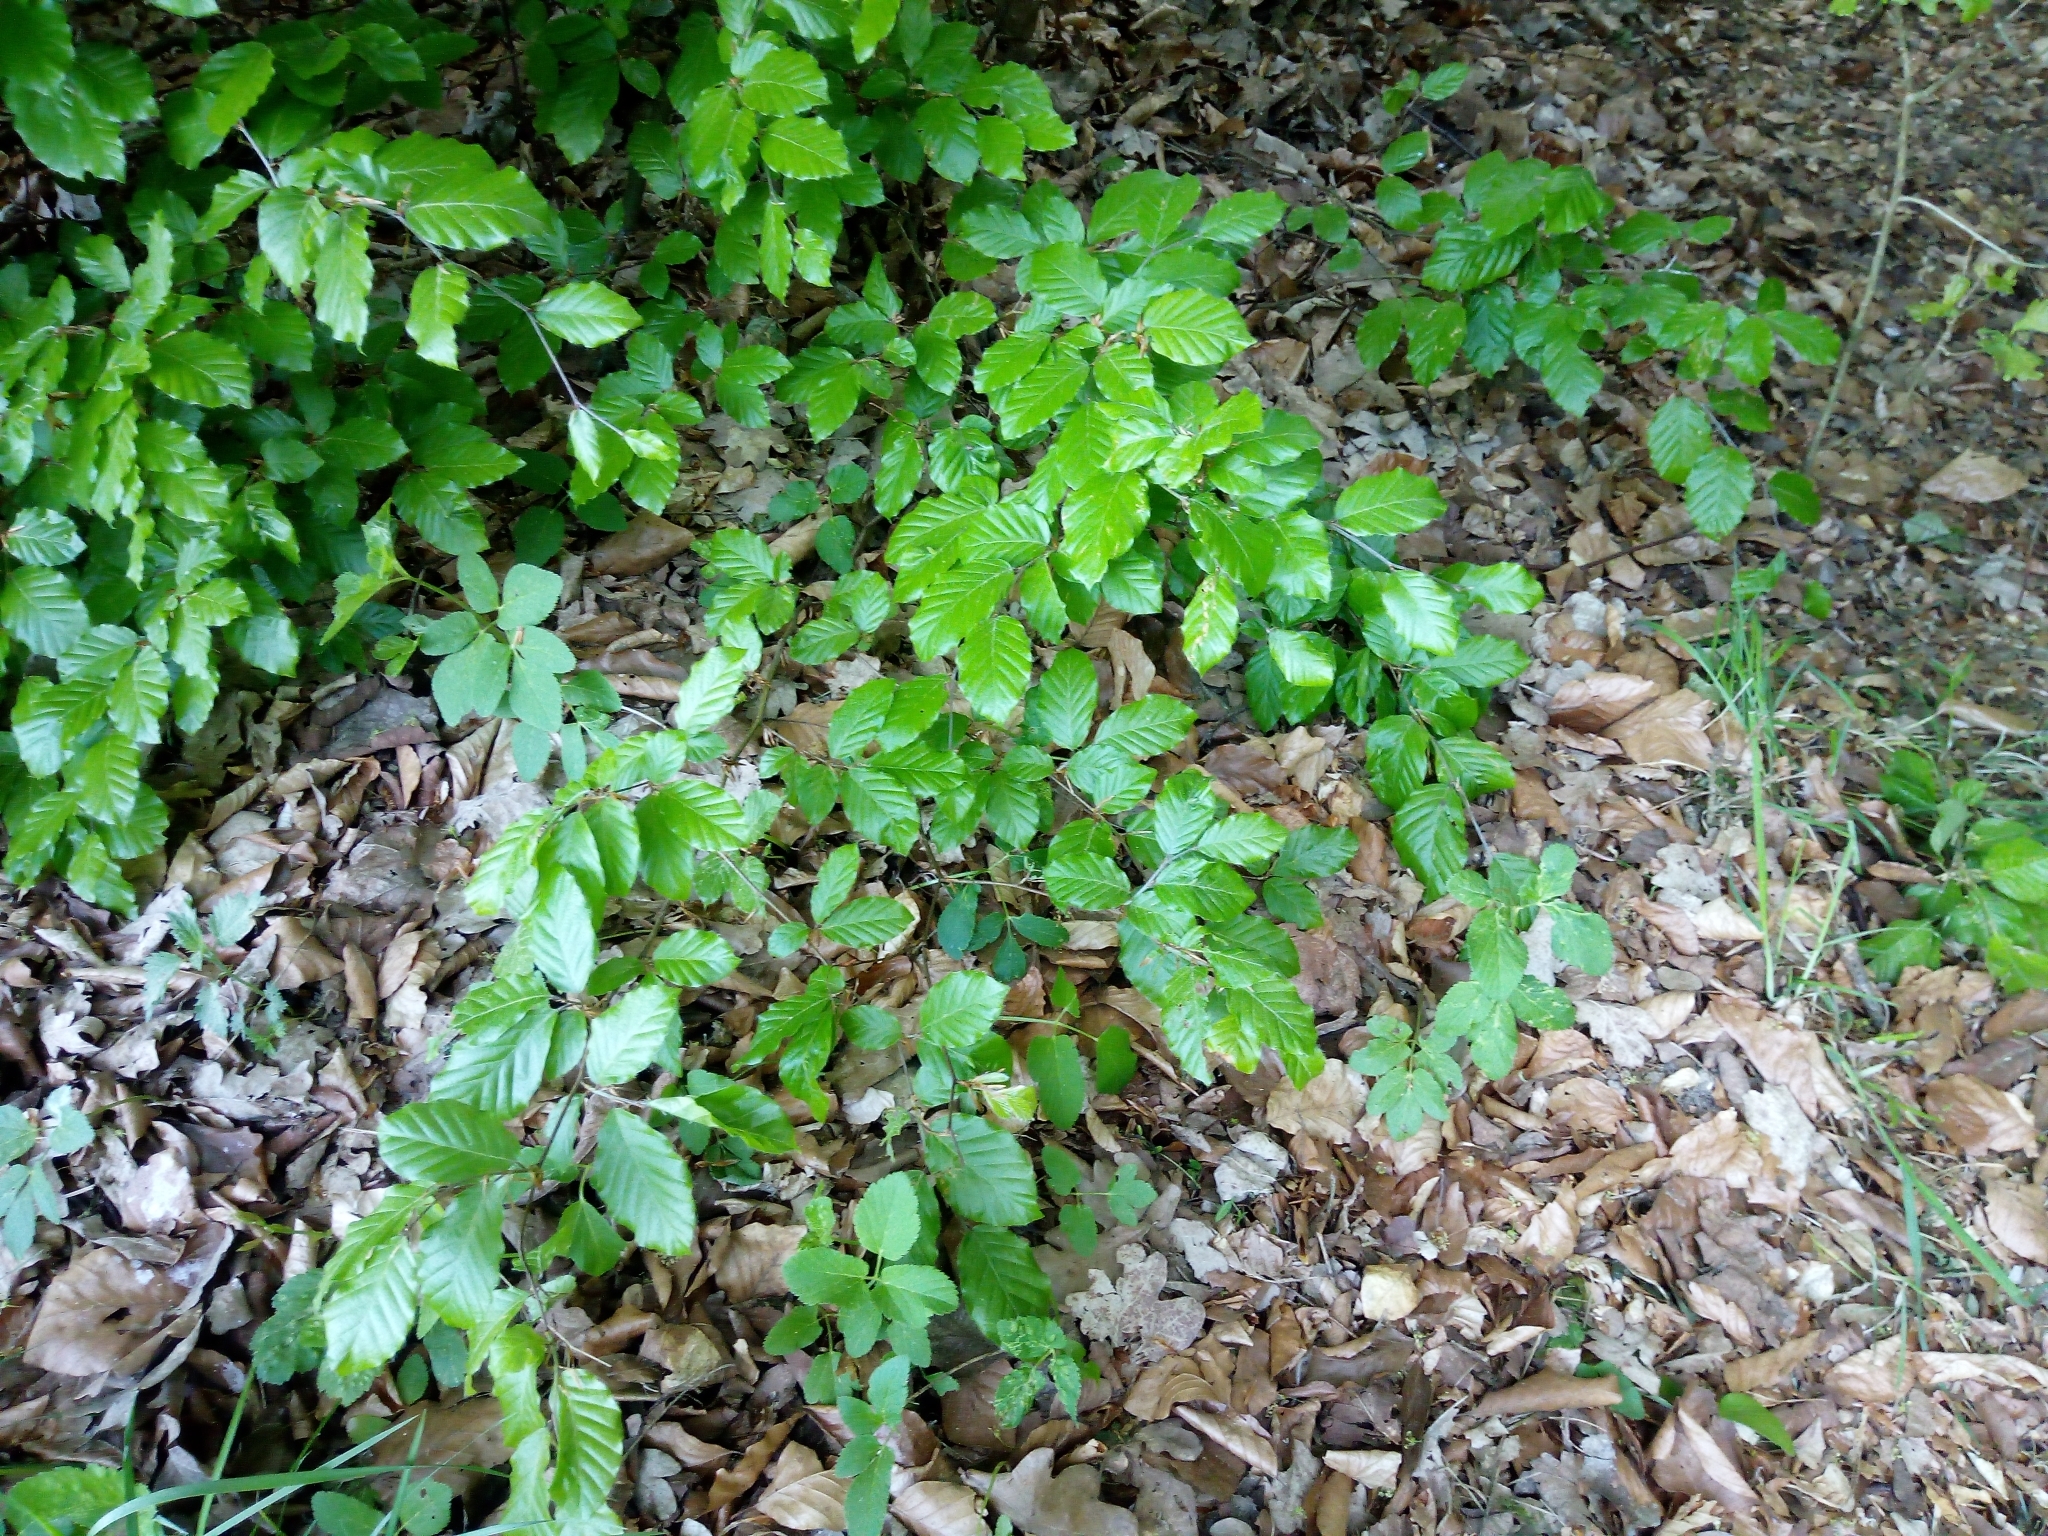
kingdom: Plantae
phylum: Tracheophyta
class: Magnoliopsida
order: Fagales
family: Fagaceae
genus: Fagus
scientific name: Fagus sylvatica
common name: Beech
